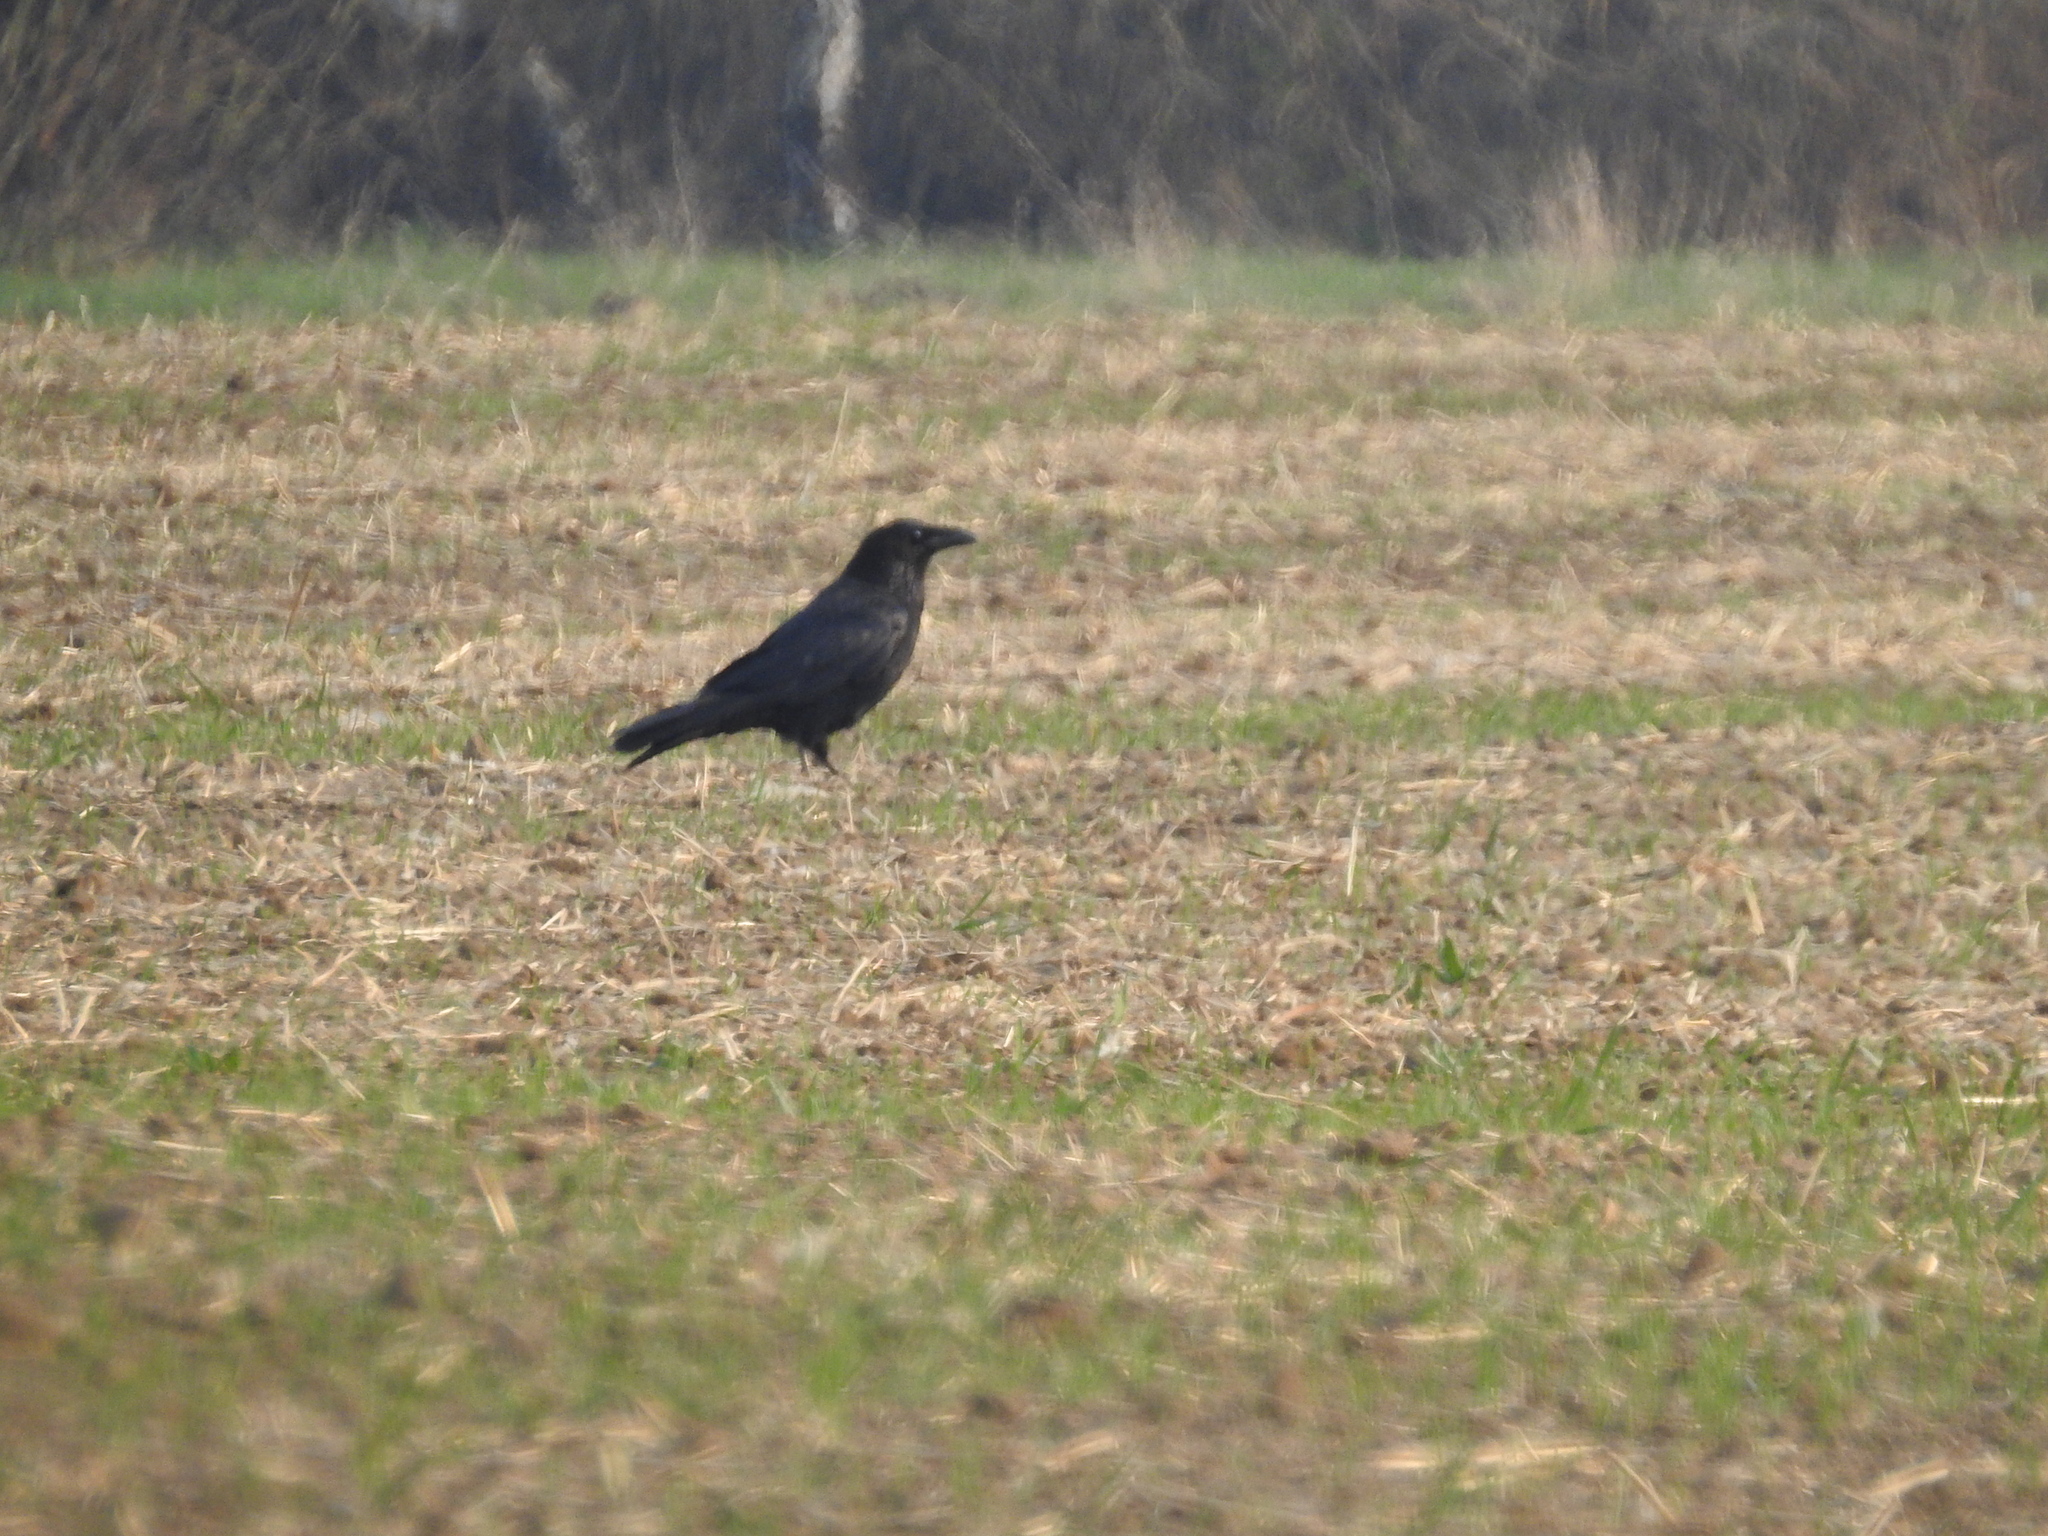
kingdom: Animalia
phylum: Chordata
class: Aves
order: Passeriformes
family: Corvidae
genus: Corvus
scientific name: Corvus corax
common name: Common raven
